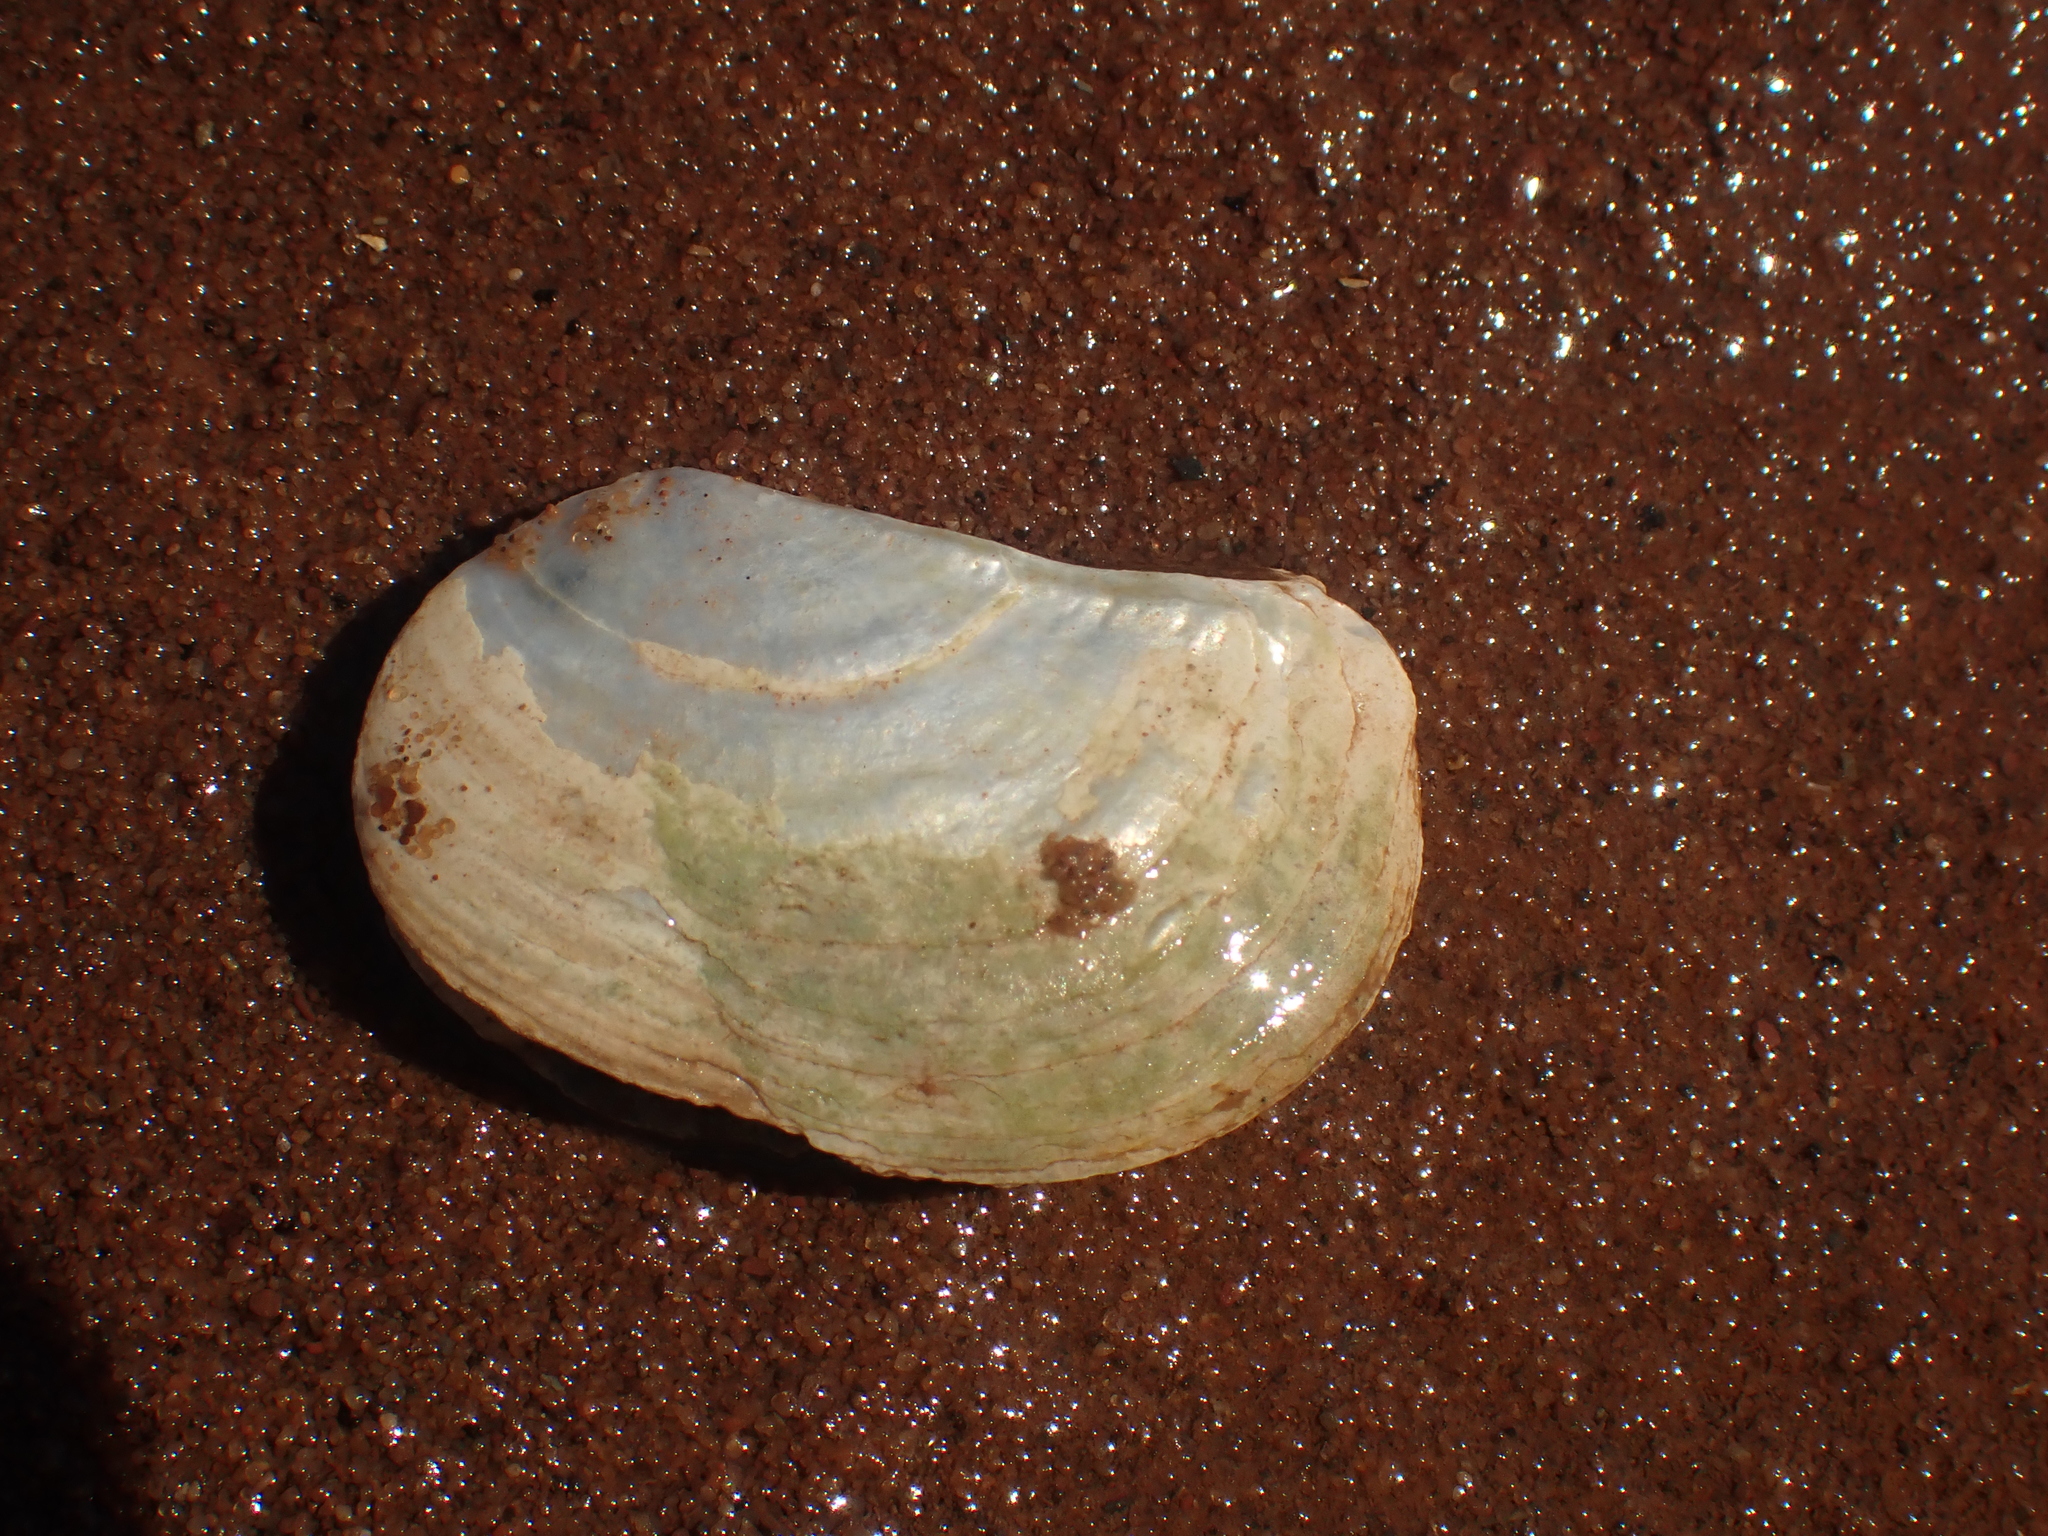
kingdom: Animalia
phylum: Mollusca
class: Bivalvia
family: Pandoridae
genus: Pandora
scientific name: Pandora gouldiana
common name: Rounded pandora
